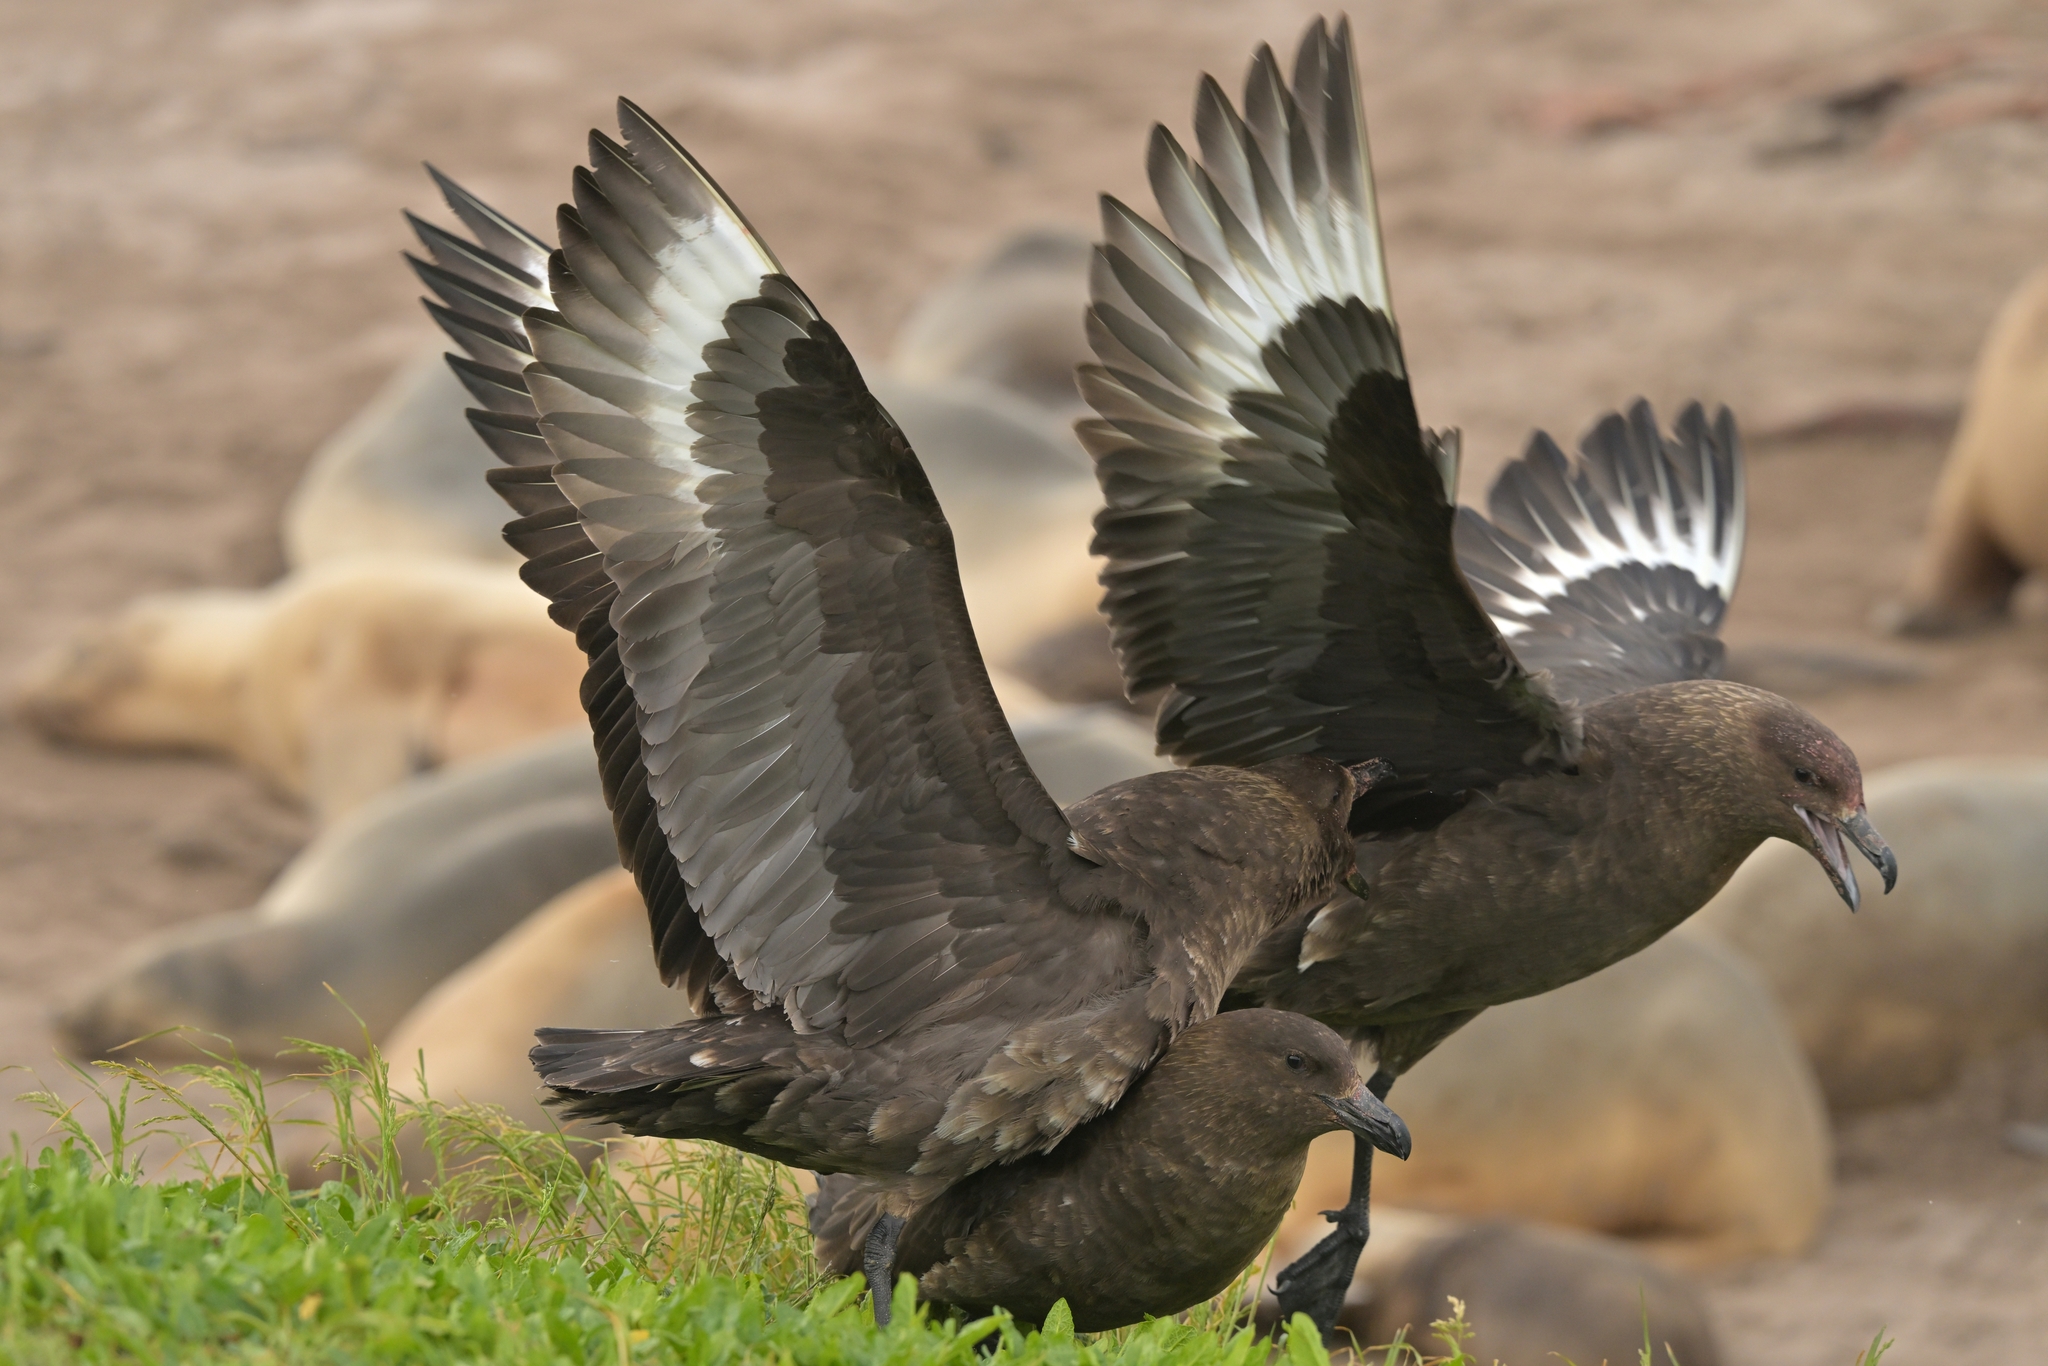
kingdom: Animalia
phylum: Chordata
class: Aves
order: Charadriiformes
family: Stercorariidae
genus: Stercorarius
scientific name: Stercorarius antarcticus
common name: Brown skua
